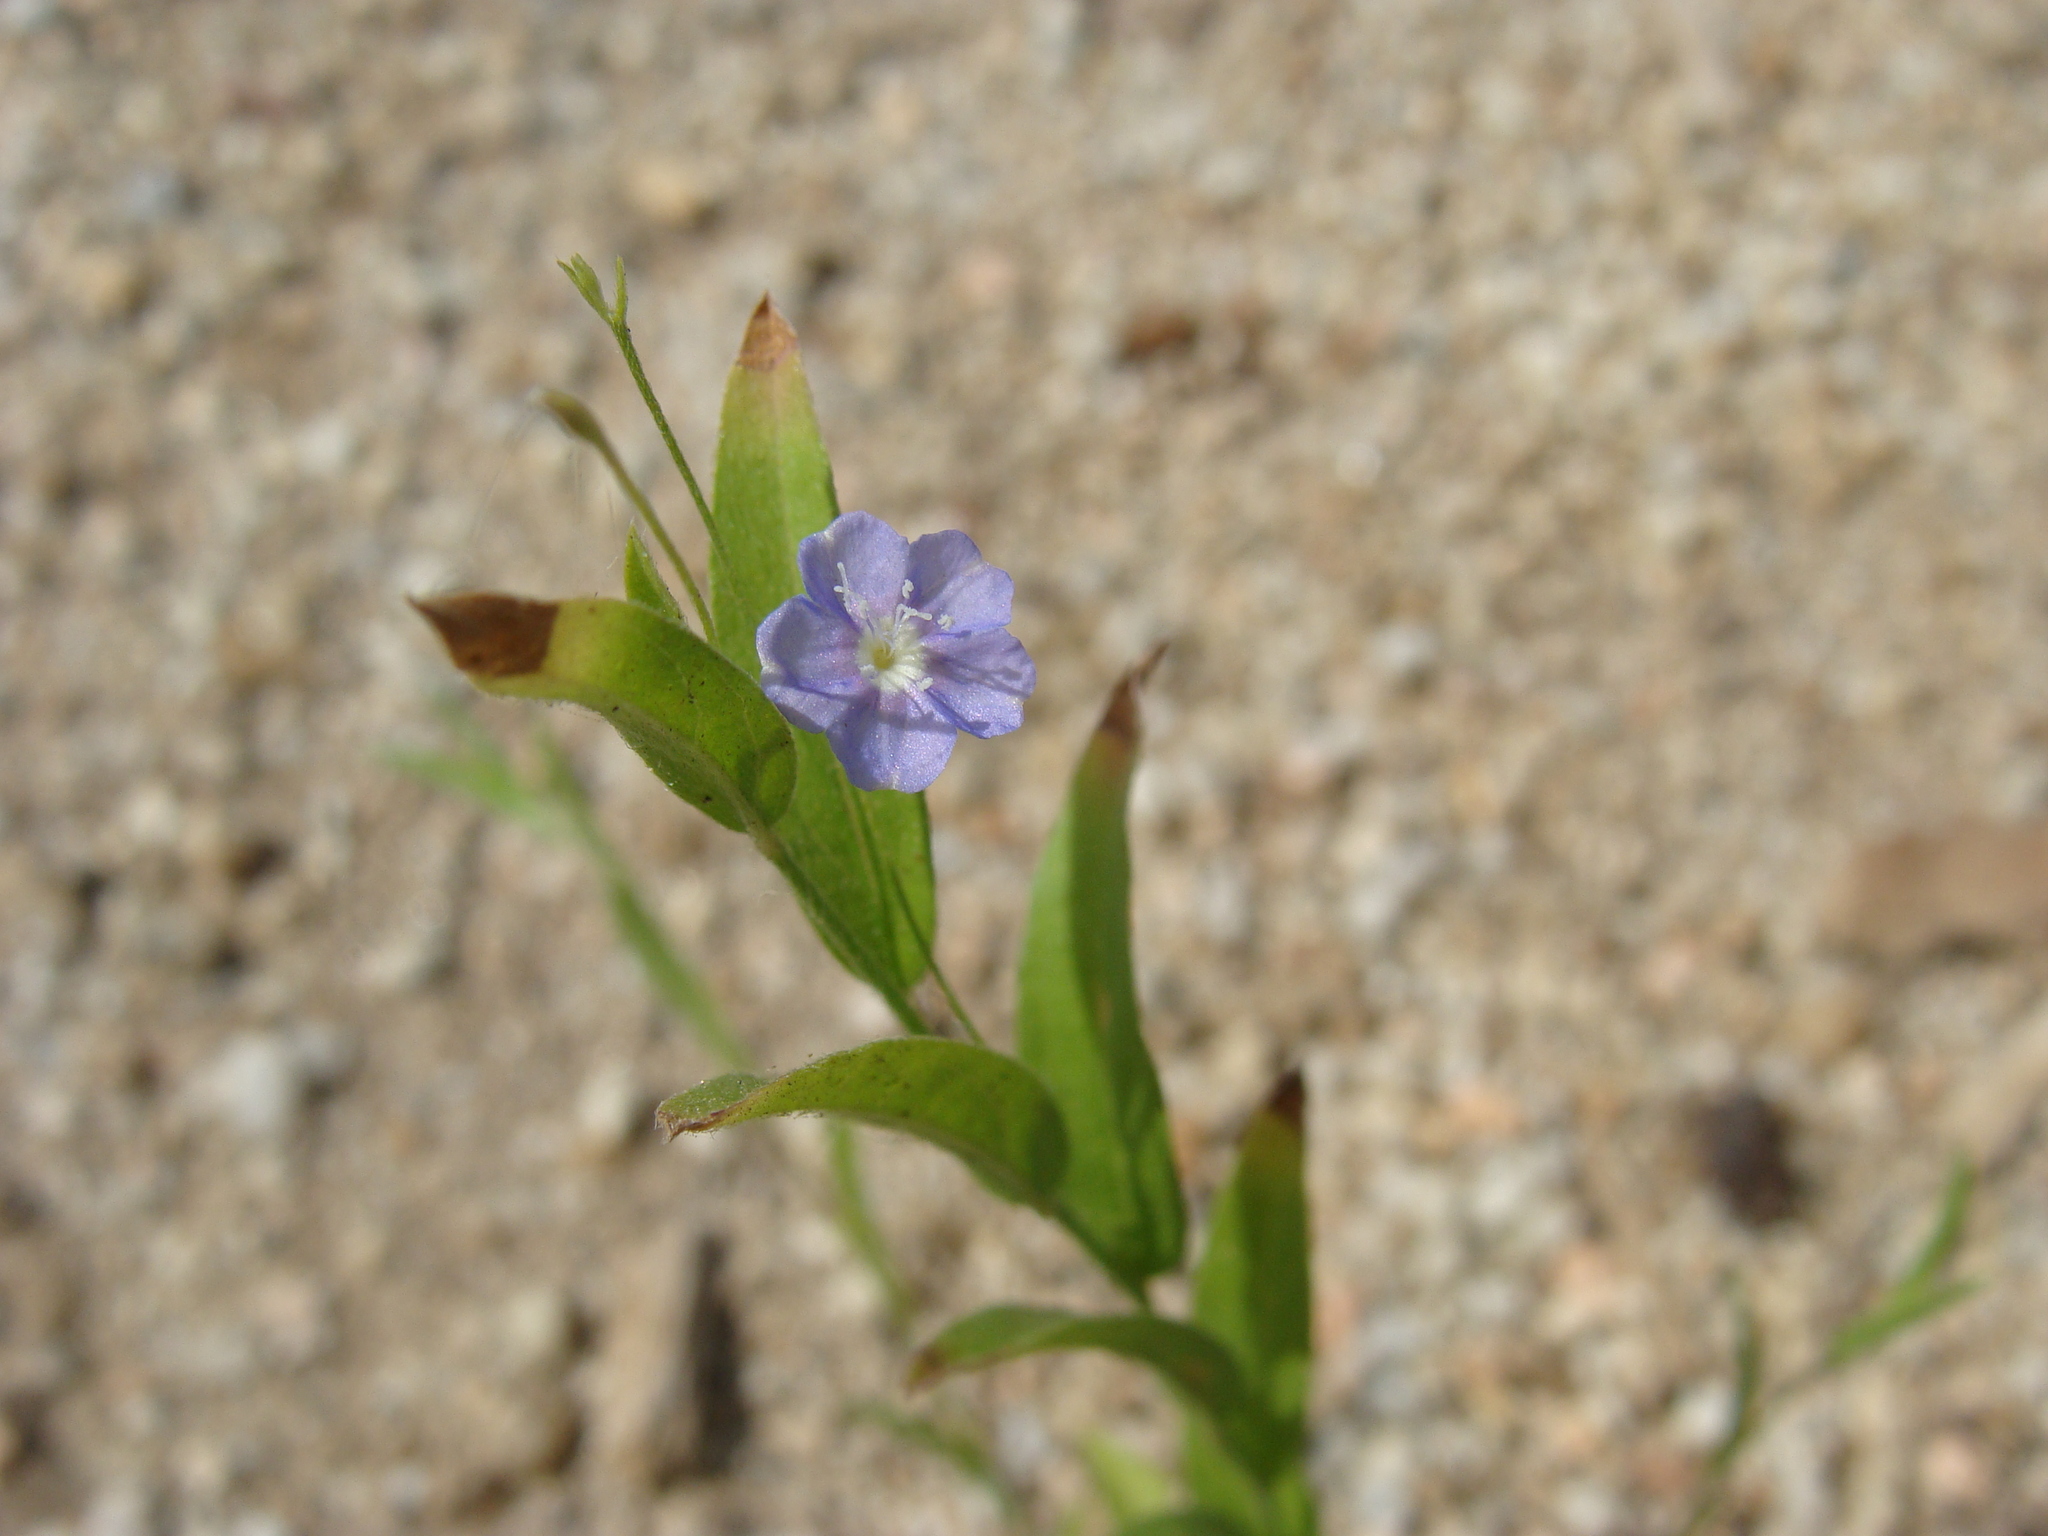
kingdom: Plantae
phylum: Tracheophyta
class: Magnoliopsida
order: Solanales
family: Convolvulaceae
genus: Evolvulus
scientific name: Evolvulus alsinoides
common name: Slender dwarf morning-glory
